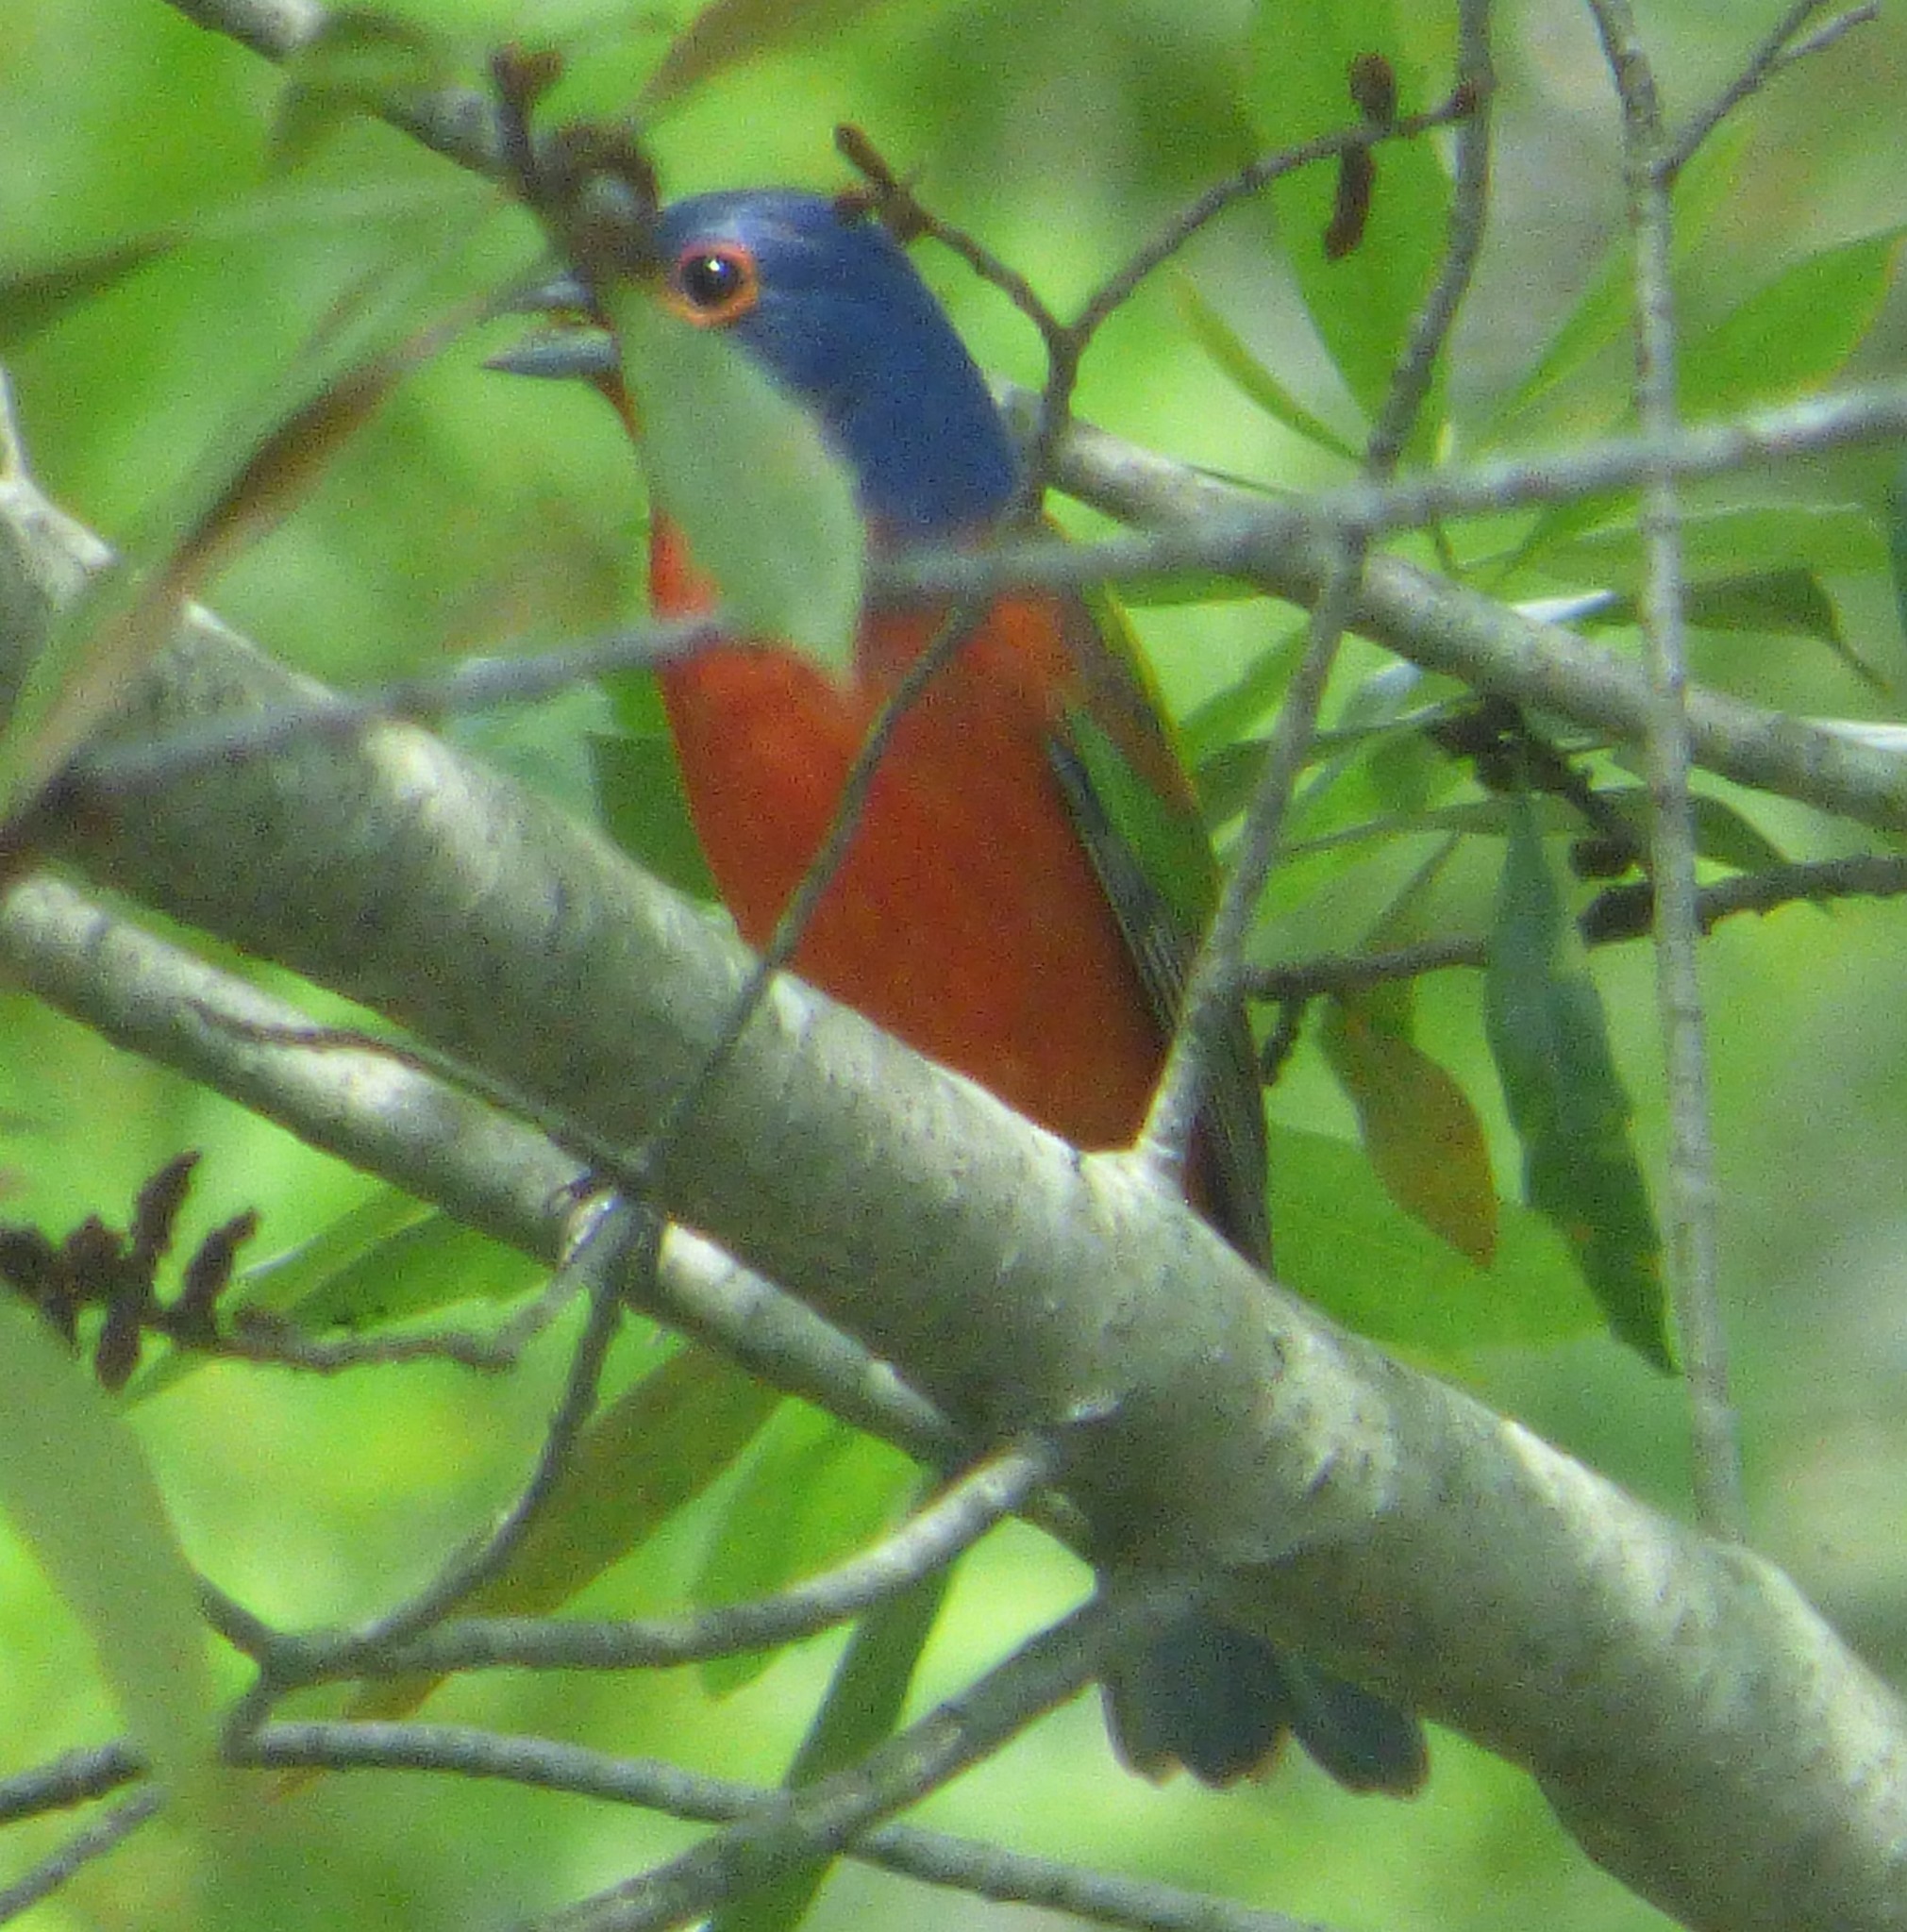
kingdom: Animalia
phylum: Chordata
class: Aves
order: Passeriformes
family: Cardinalidae
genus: Passerina
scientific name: Passerina ciris
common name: Painted bunting
